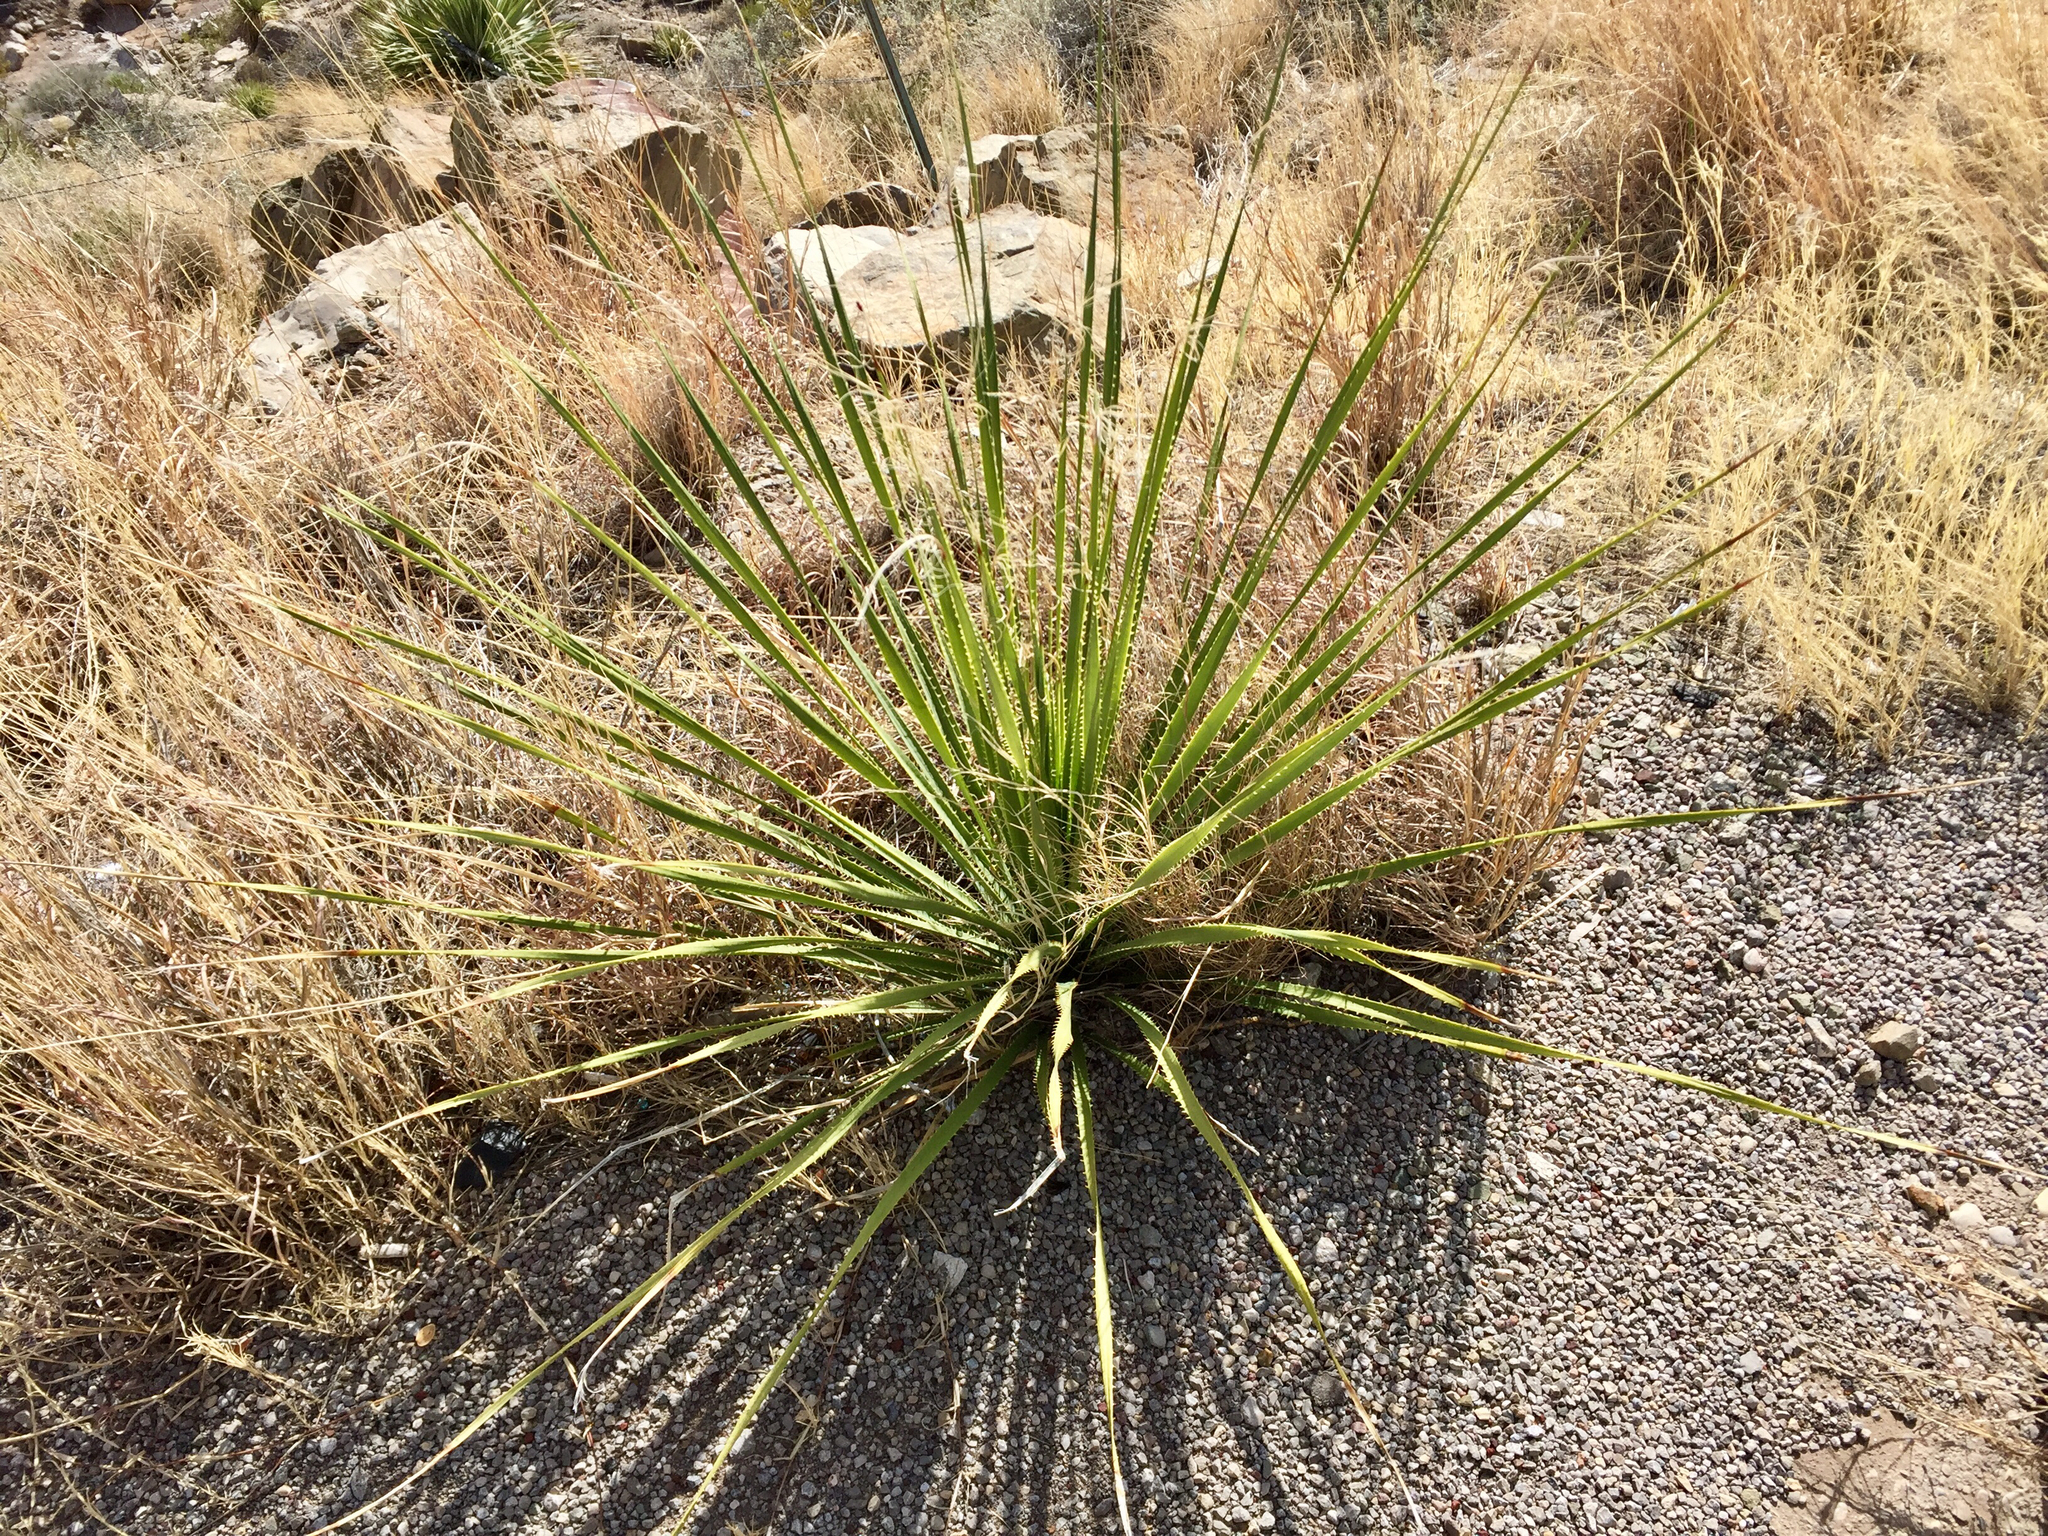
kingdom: Plantae
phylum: Tracheophyta
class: Liliopsida
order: Asparagales
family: Asparagaceae
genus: Dasylirion
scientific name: Dasylirion wheeleri
